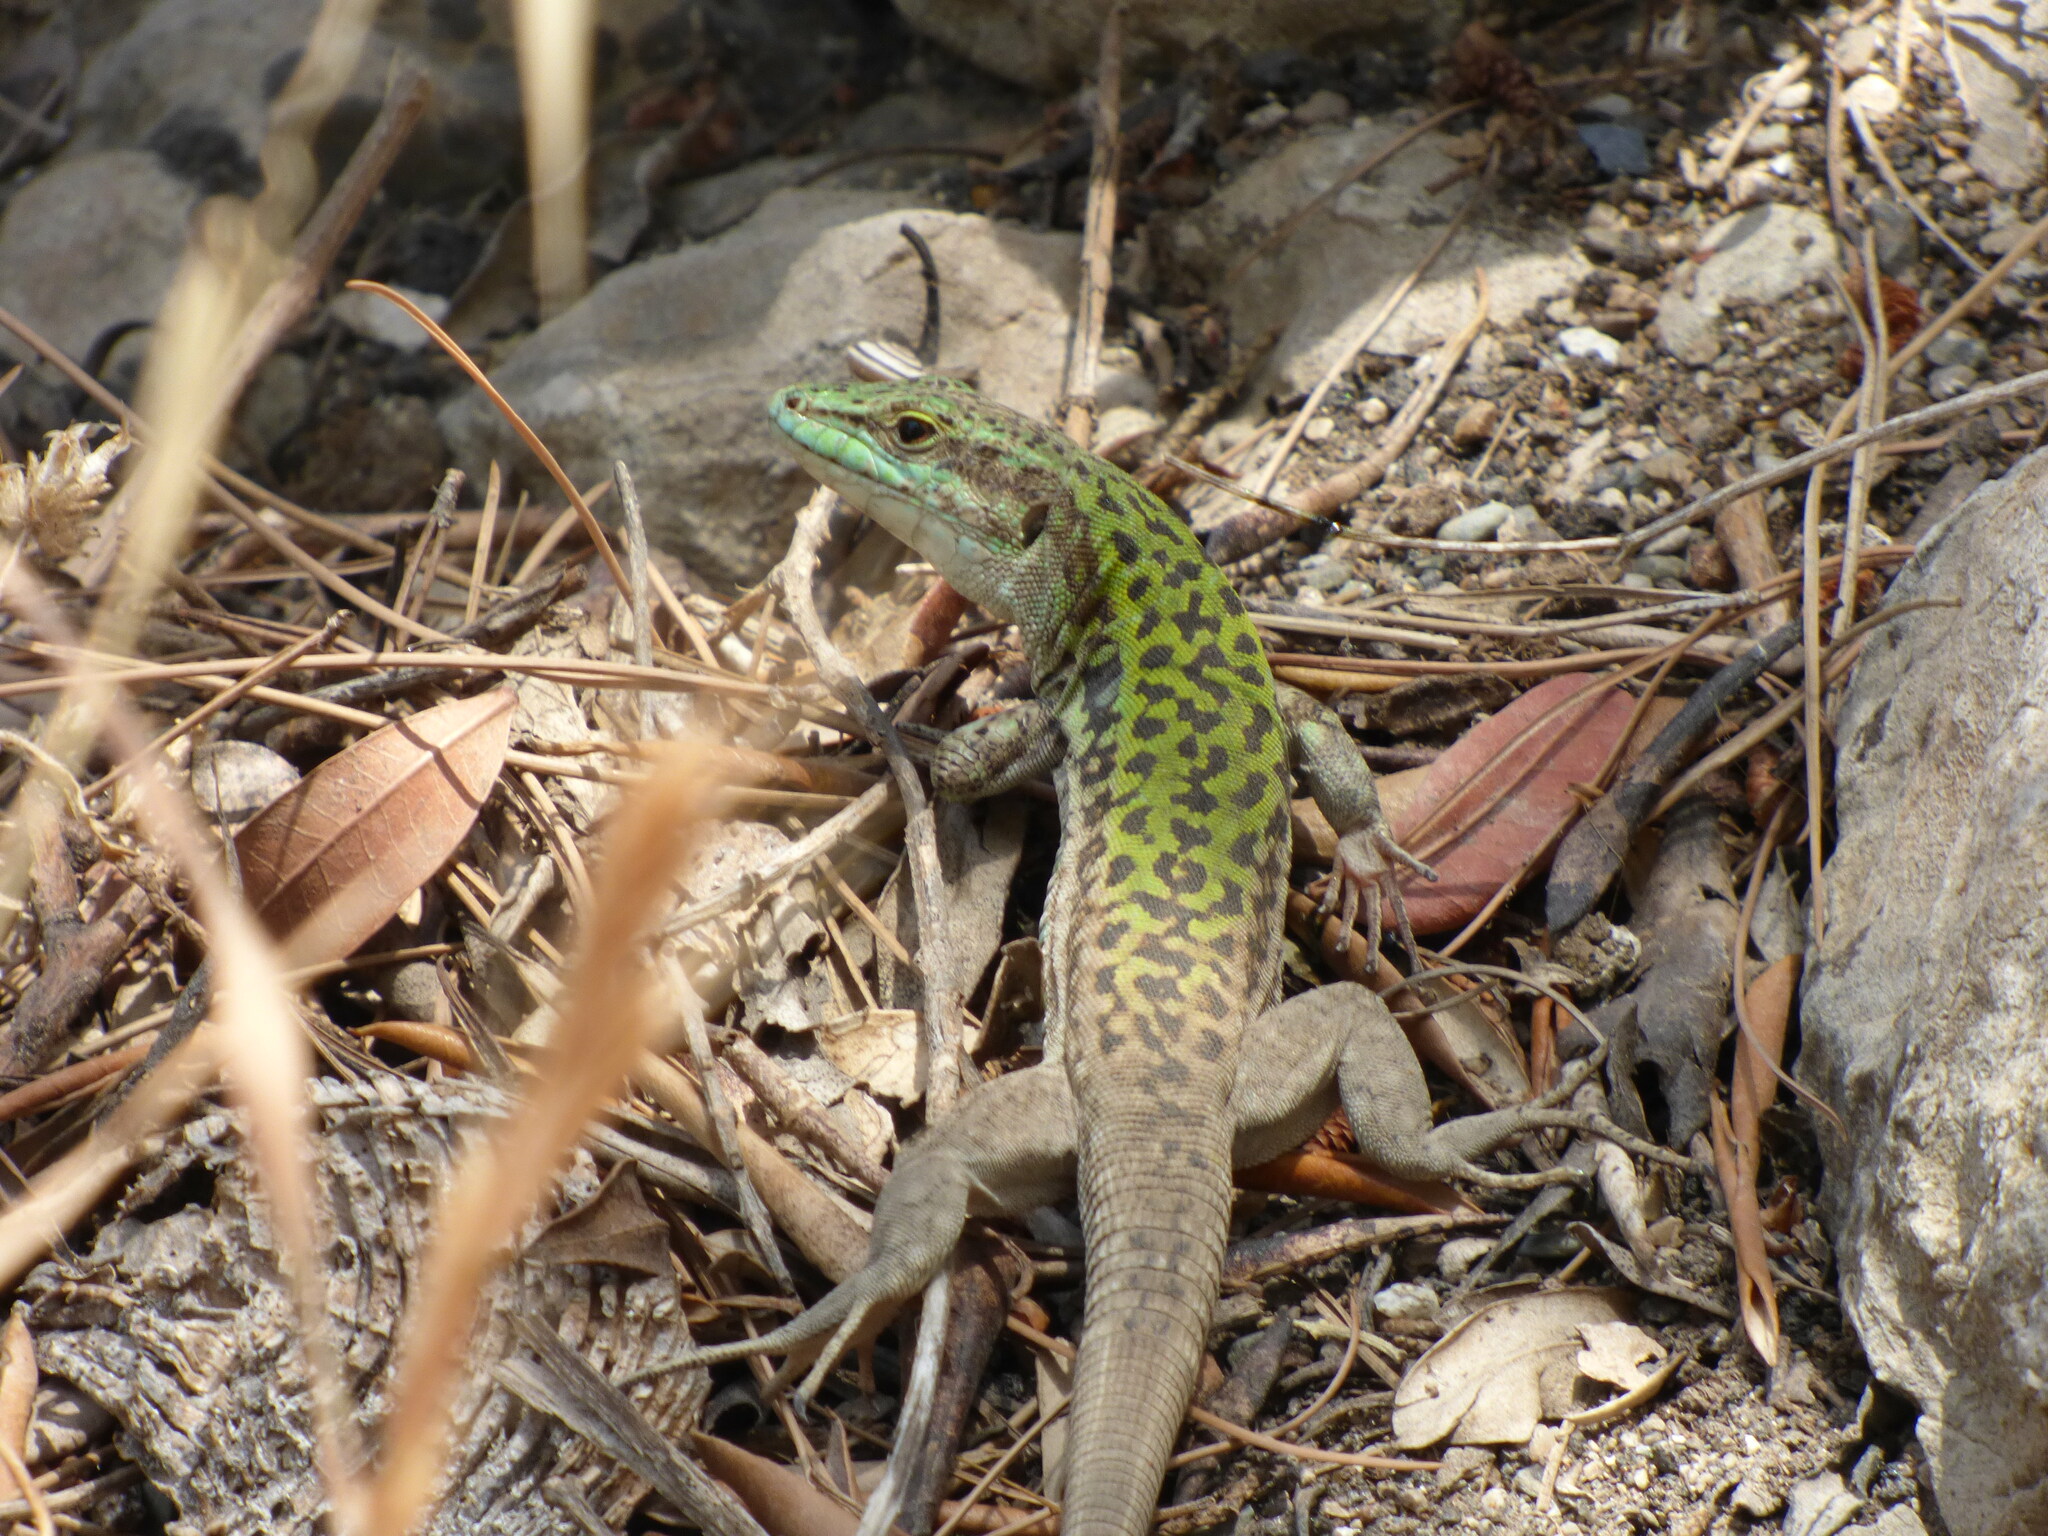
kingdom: Animalia
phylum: Chordata
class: Squamata
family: Lacertidae
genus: Podarcis
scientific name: Podarcis siculus
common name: Italian wall lizard
